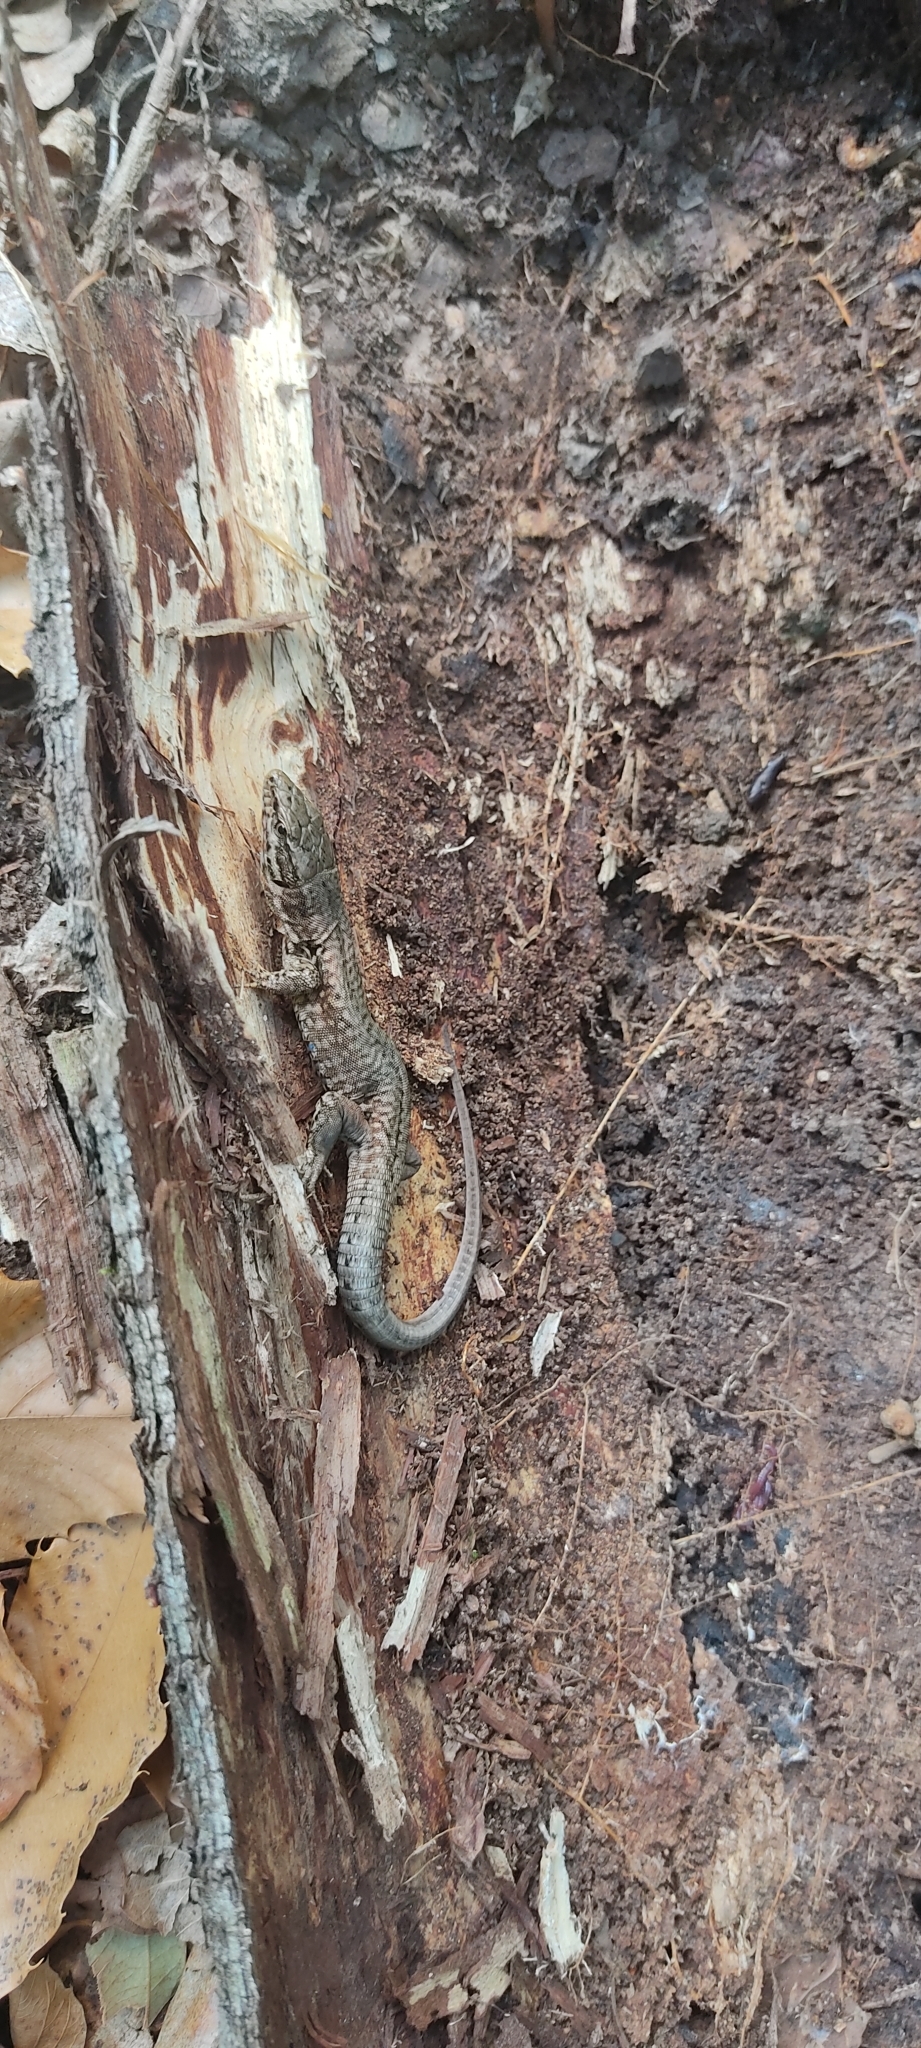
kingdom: Animalia
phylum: Chordata
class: Squamata
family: Lacertidae
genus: Podarcis
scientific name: Podarcis muralis
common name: Common wall lizard
